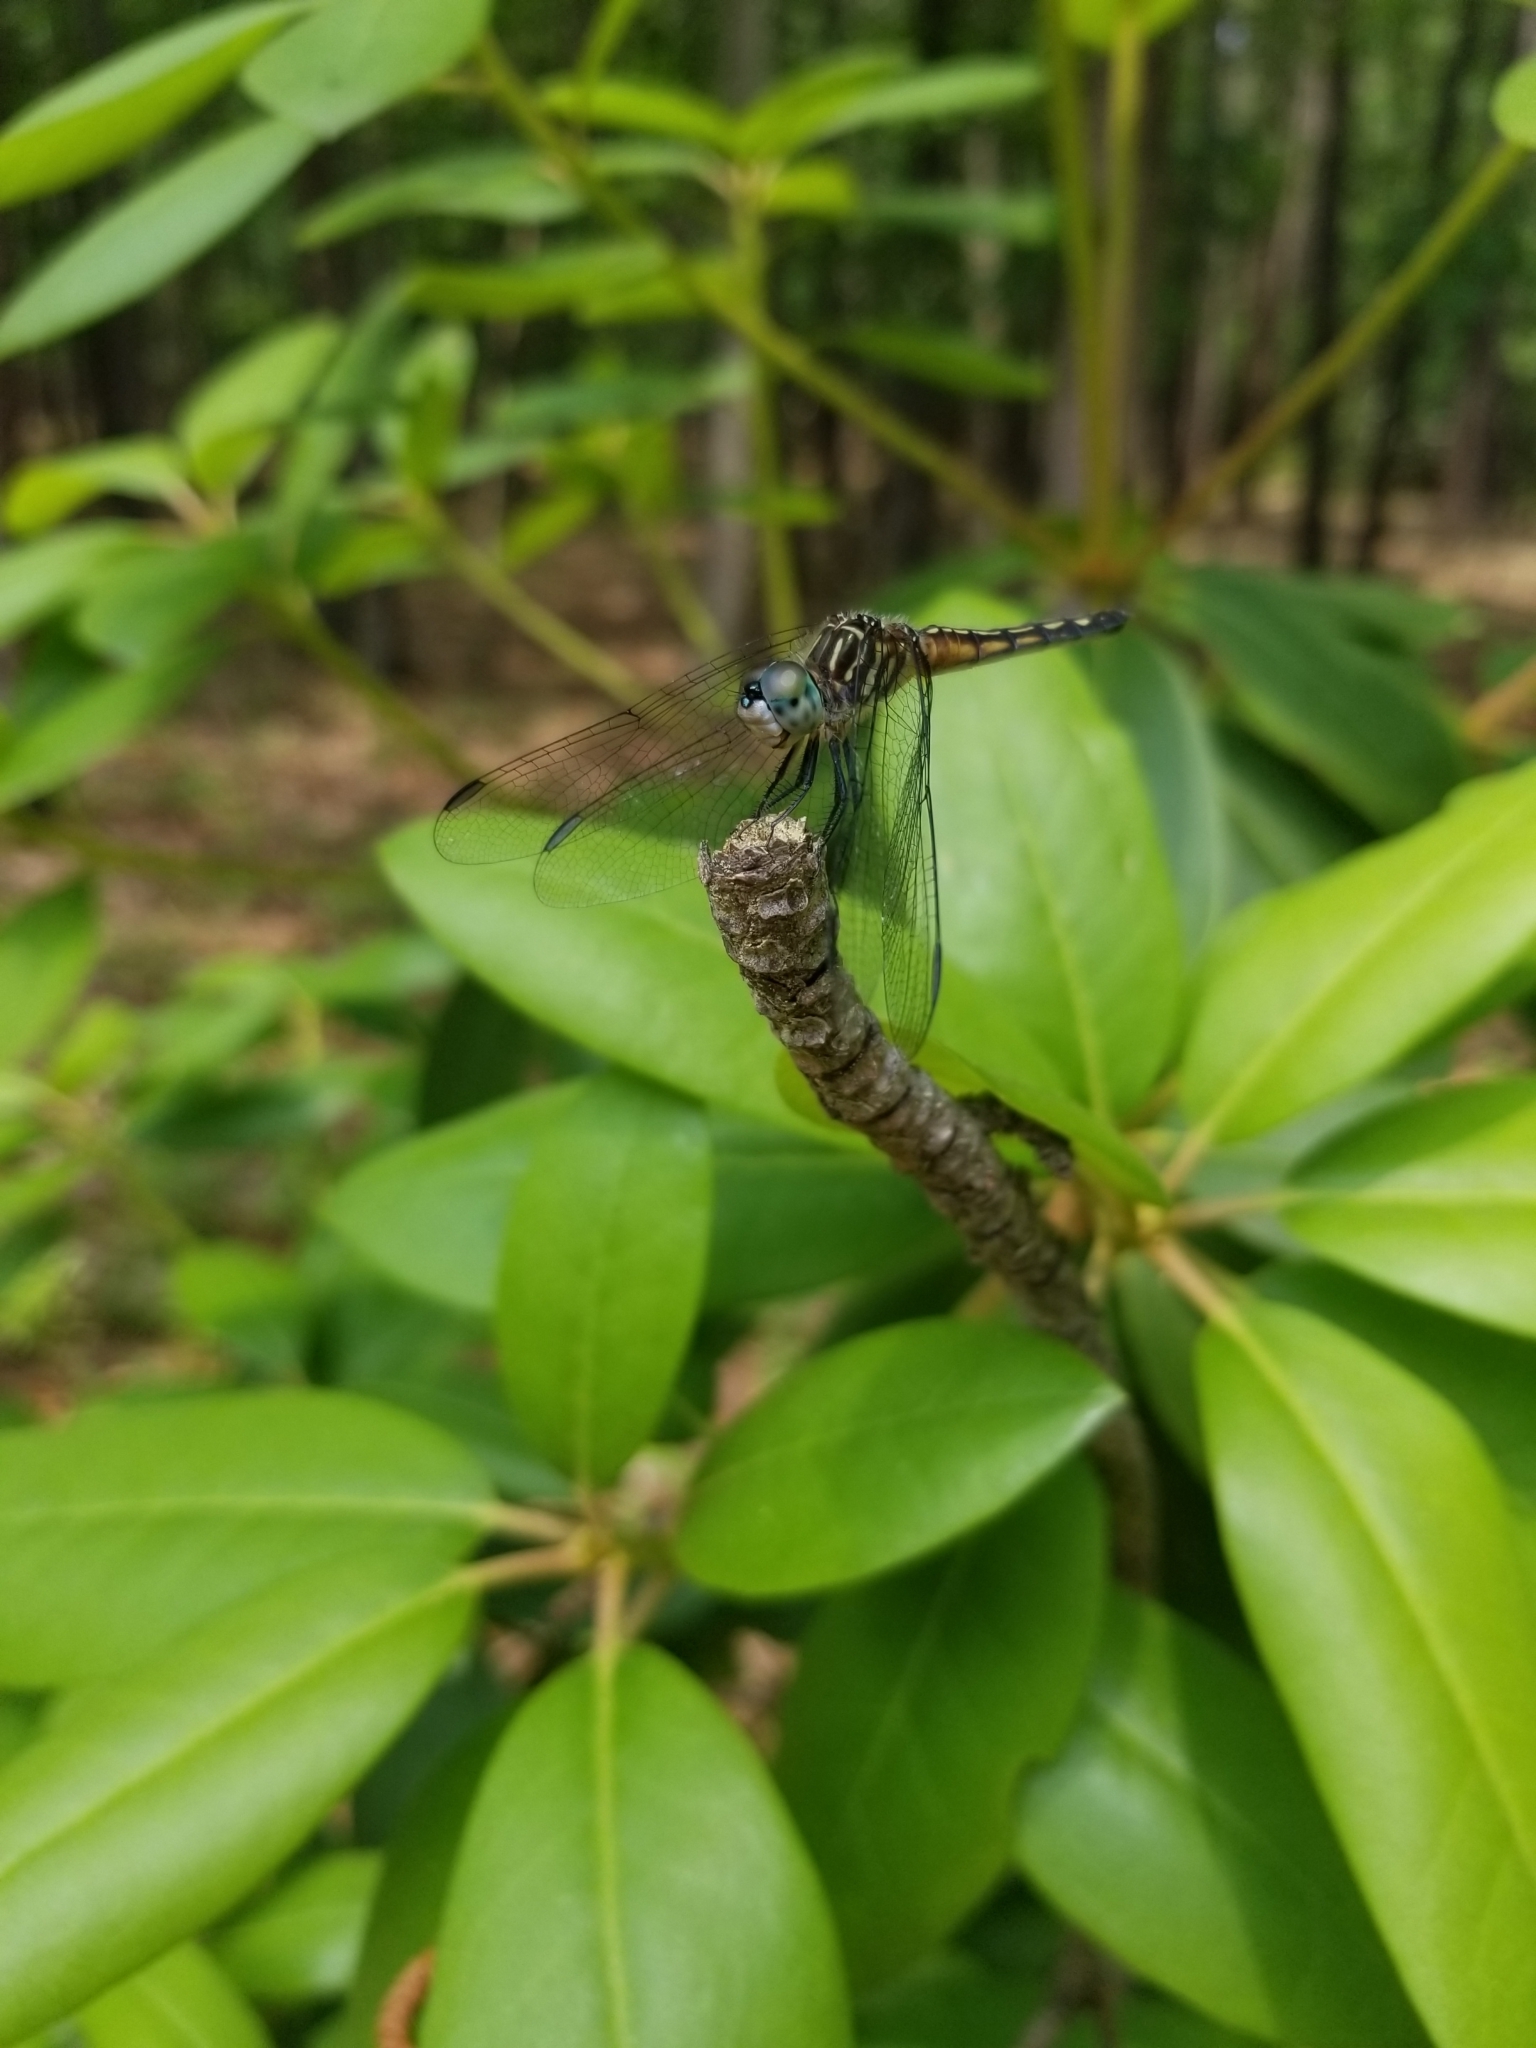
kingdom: Animalia
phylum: Arthropoda
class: Insecta
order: Odonata
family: Libellulidae
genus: Pachydiplax
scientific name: Pachydiplax longipennis
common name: Blue dasher
